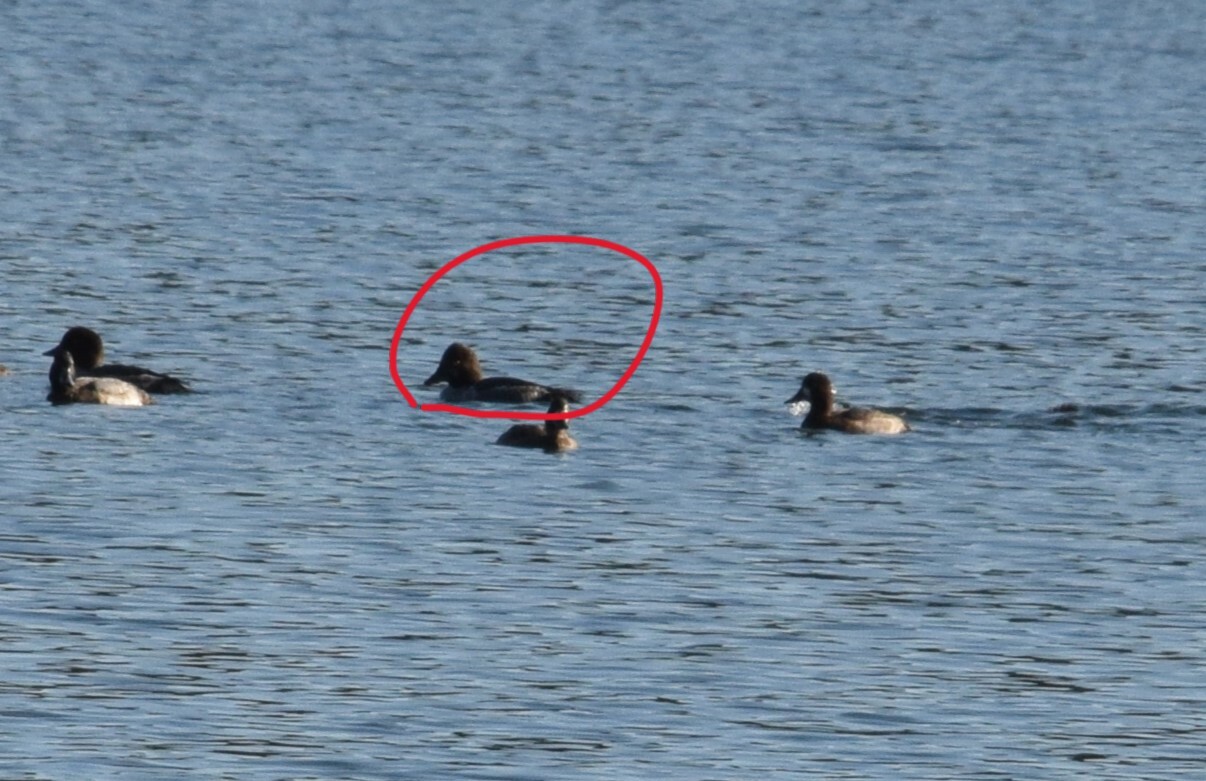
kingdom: Animalia
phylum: Chordata
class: Aves
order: Anseriformes
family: Anatidae
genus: Bucephala
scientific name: Bucephala clangula
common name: Common goldeneye
